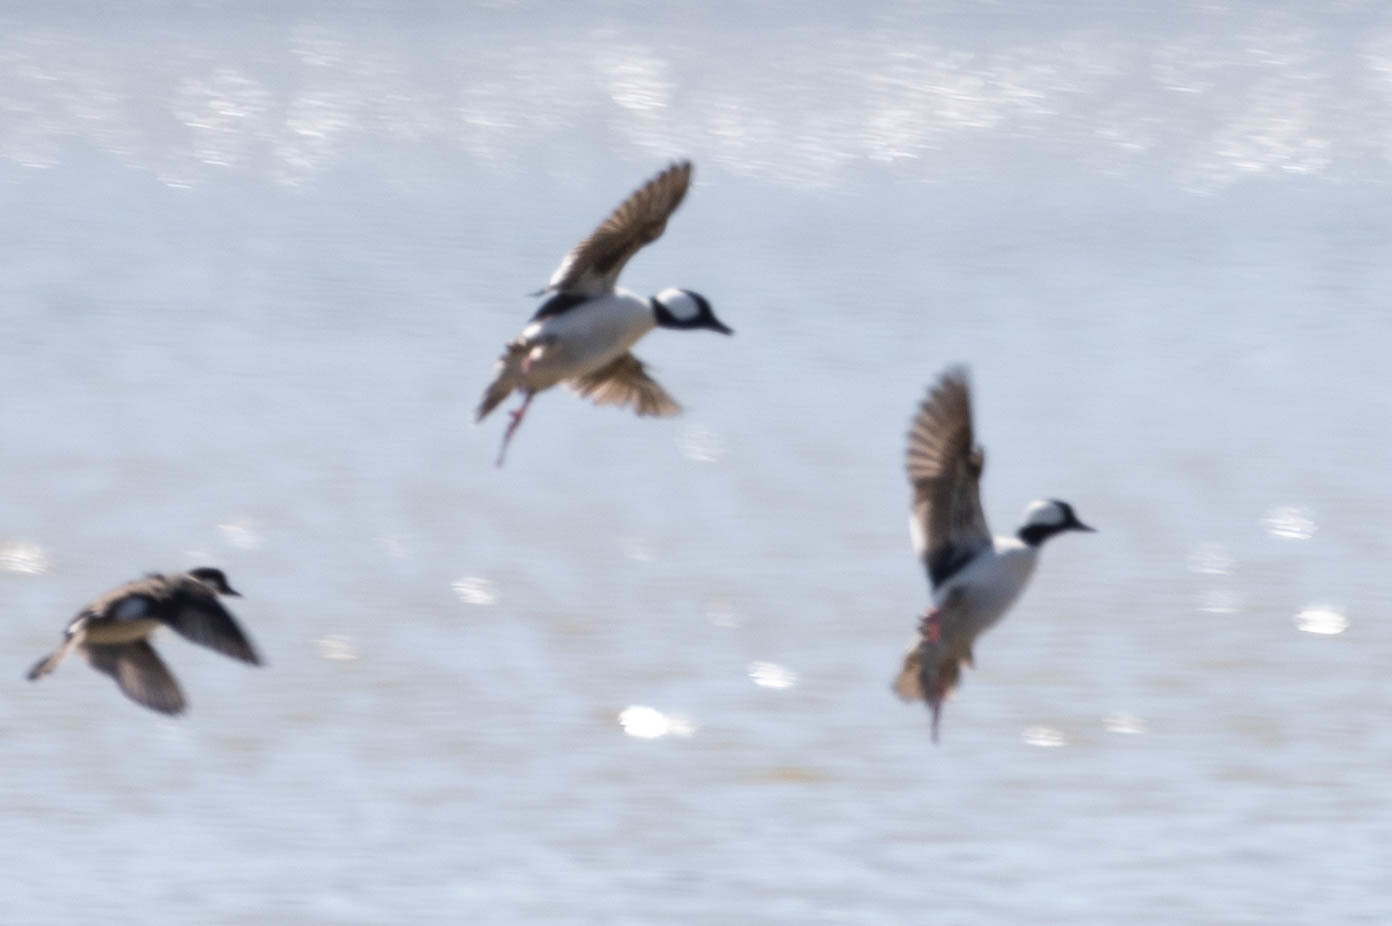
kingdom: Animalia
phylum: Chordata
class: Aves
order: Anseriformes
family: Anatidae
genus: Bucephala
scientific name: Bucephala albeola
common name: Bufflehead
